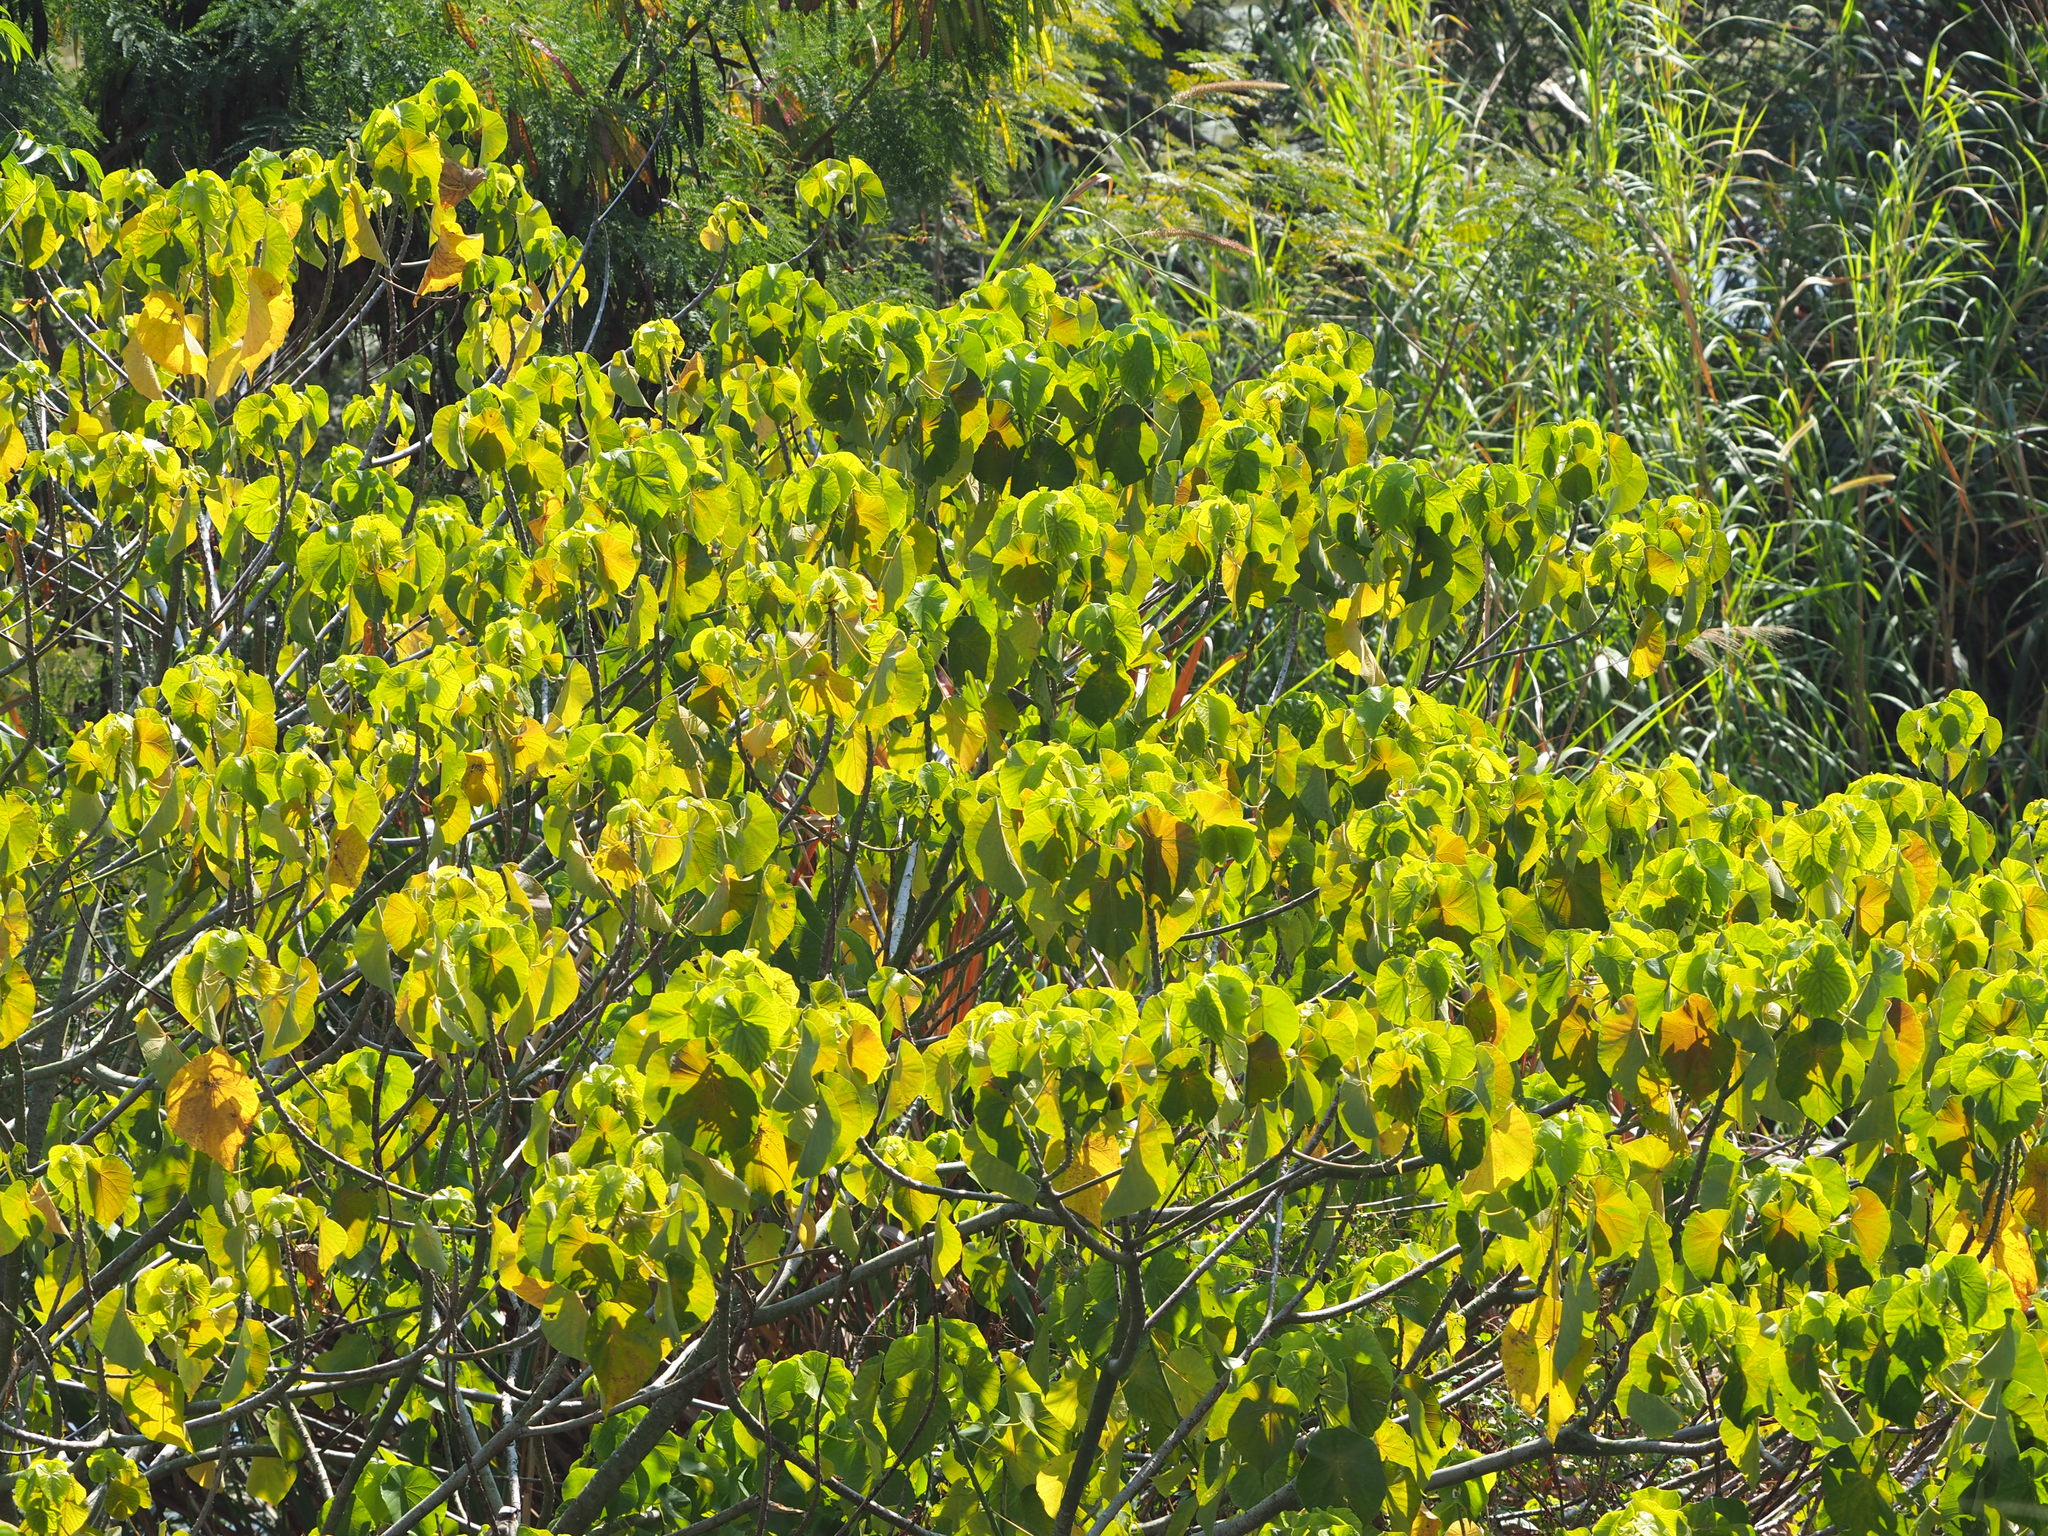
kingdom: Plantae
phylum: Tracheophyta
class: Magnoliopsida
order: Malpighiales
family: Euphorbiaceae
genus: Macaranga
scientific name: Macaranga tanarius
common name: Parasol leaf tree
